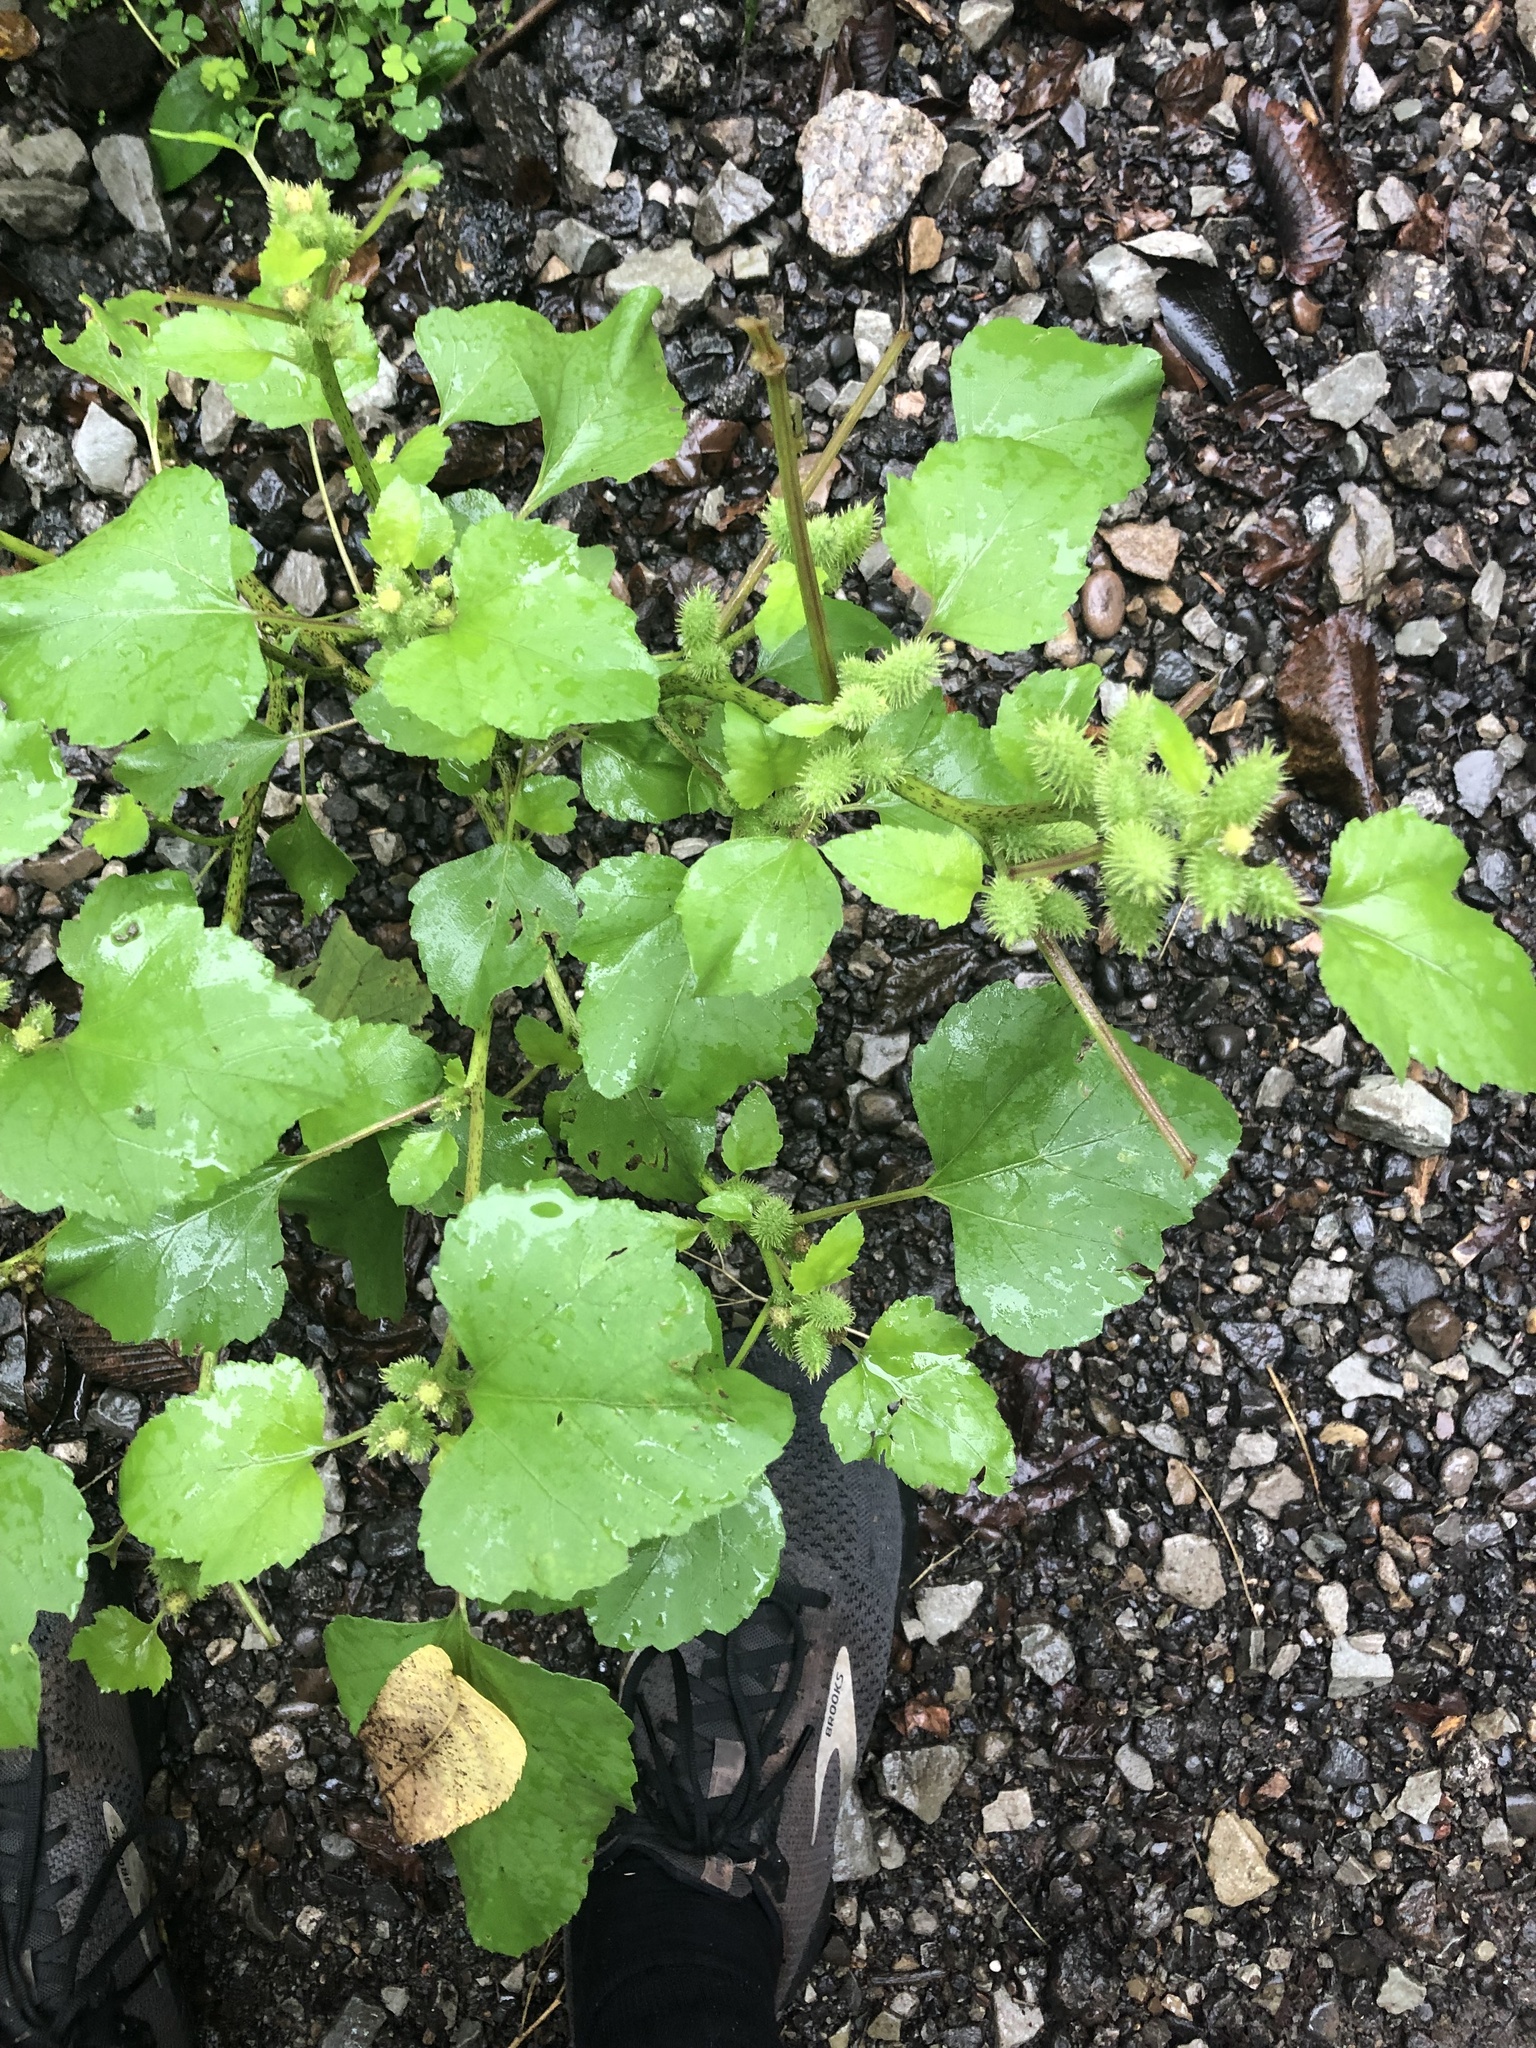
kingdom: Plantae
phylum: Tracheophyta
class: Magnoliopsida
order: Asterales
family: Asteraceae
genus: Xanthium
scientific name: Xanthium strumarium
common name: Rough cocklebur
